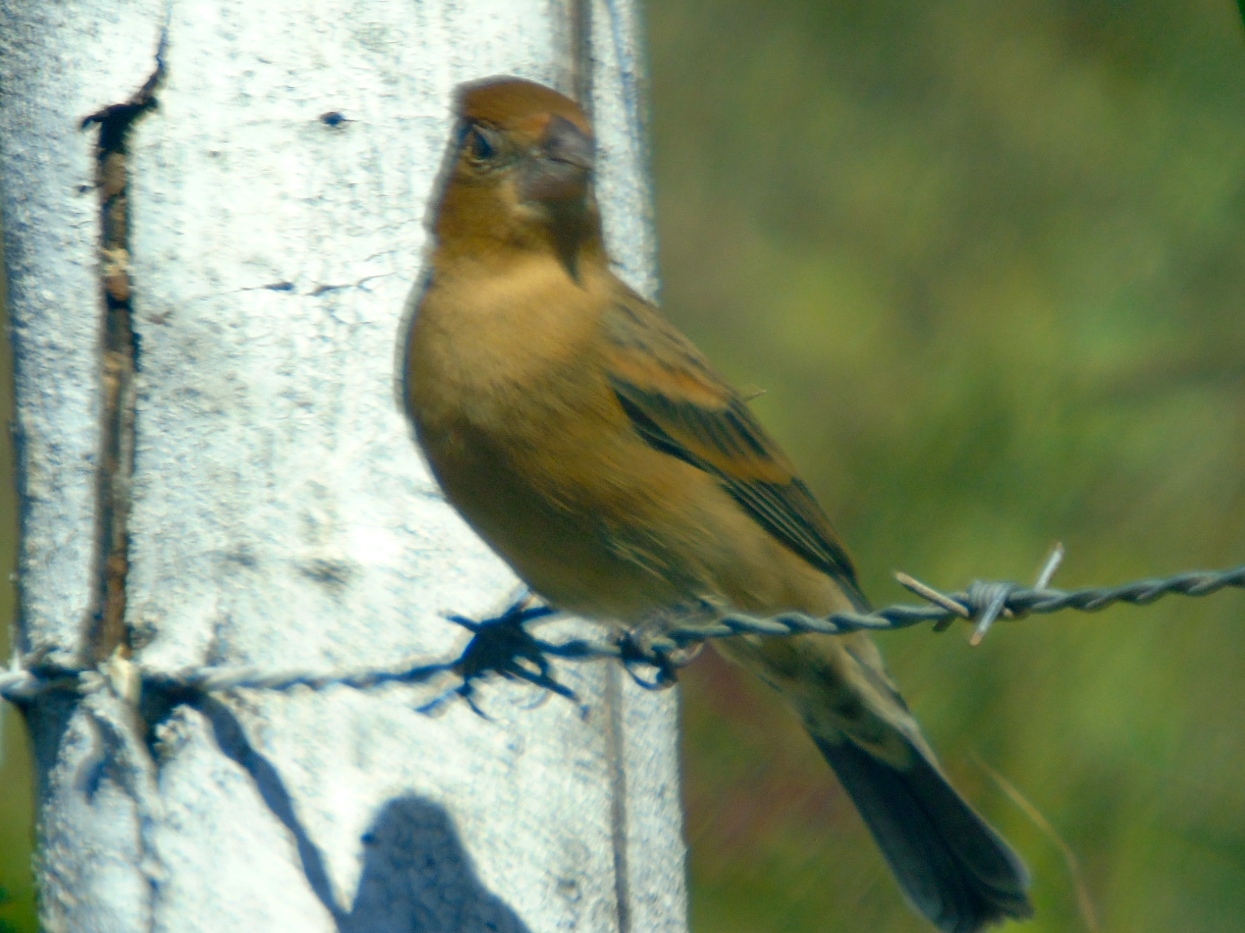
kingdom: Animalia
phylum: Chordata
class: Aves
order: Passeriformes
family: Cardinalidae
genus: Passerina
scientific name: Passerina caerulea
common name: Blue grosbeak
